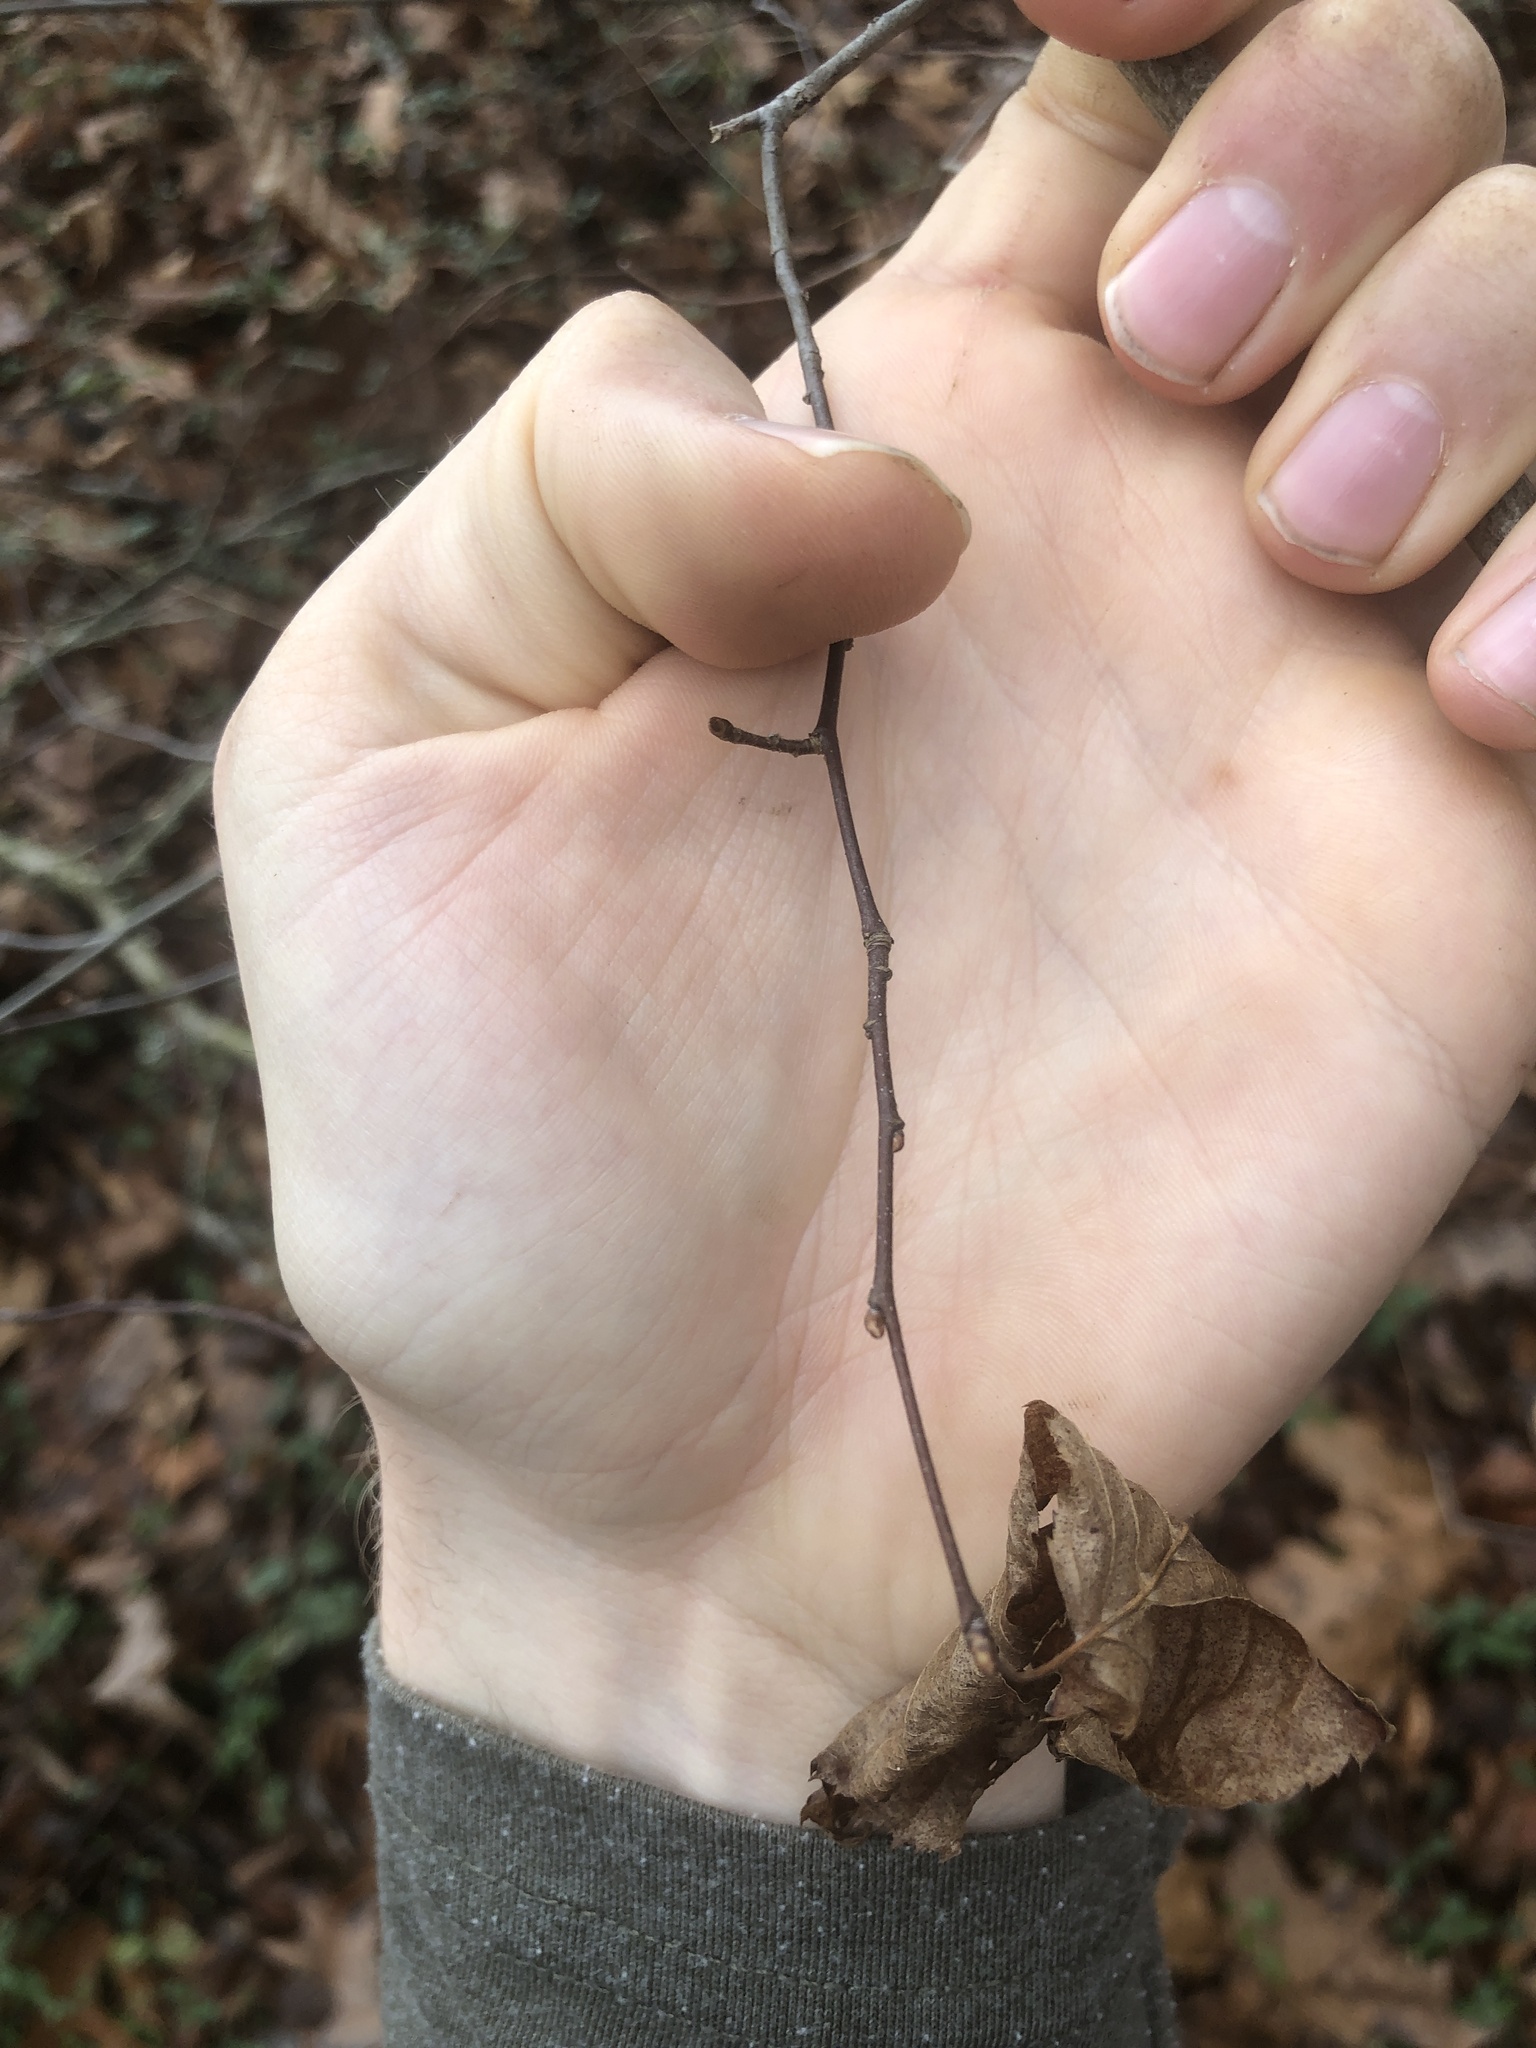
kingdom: Plantae
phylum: Tracheophyta
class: Magnoliopsida
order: Fagales
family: Betulaceae
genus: Carpinus
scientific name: Carpinus caroliniana
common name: American hornbeam
